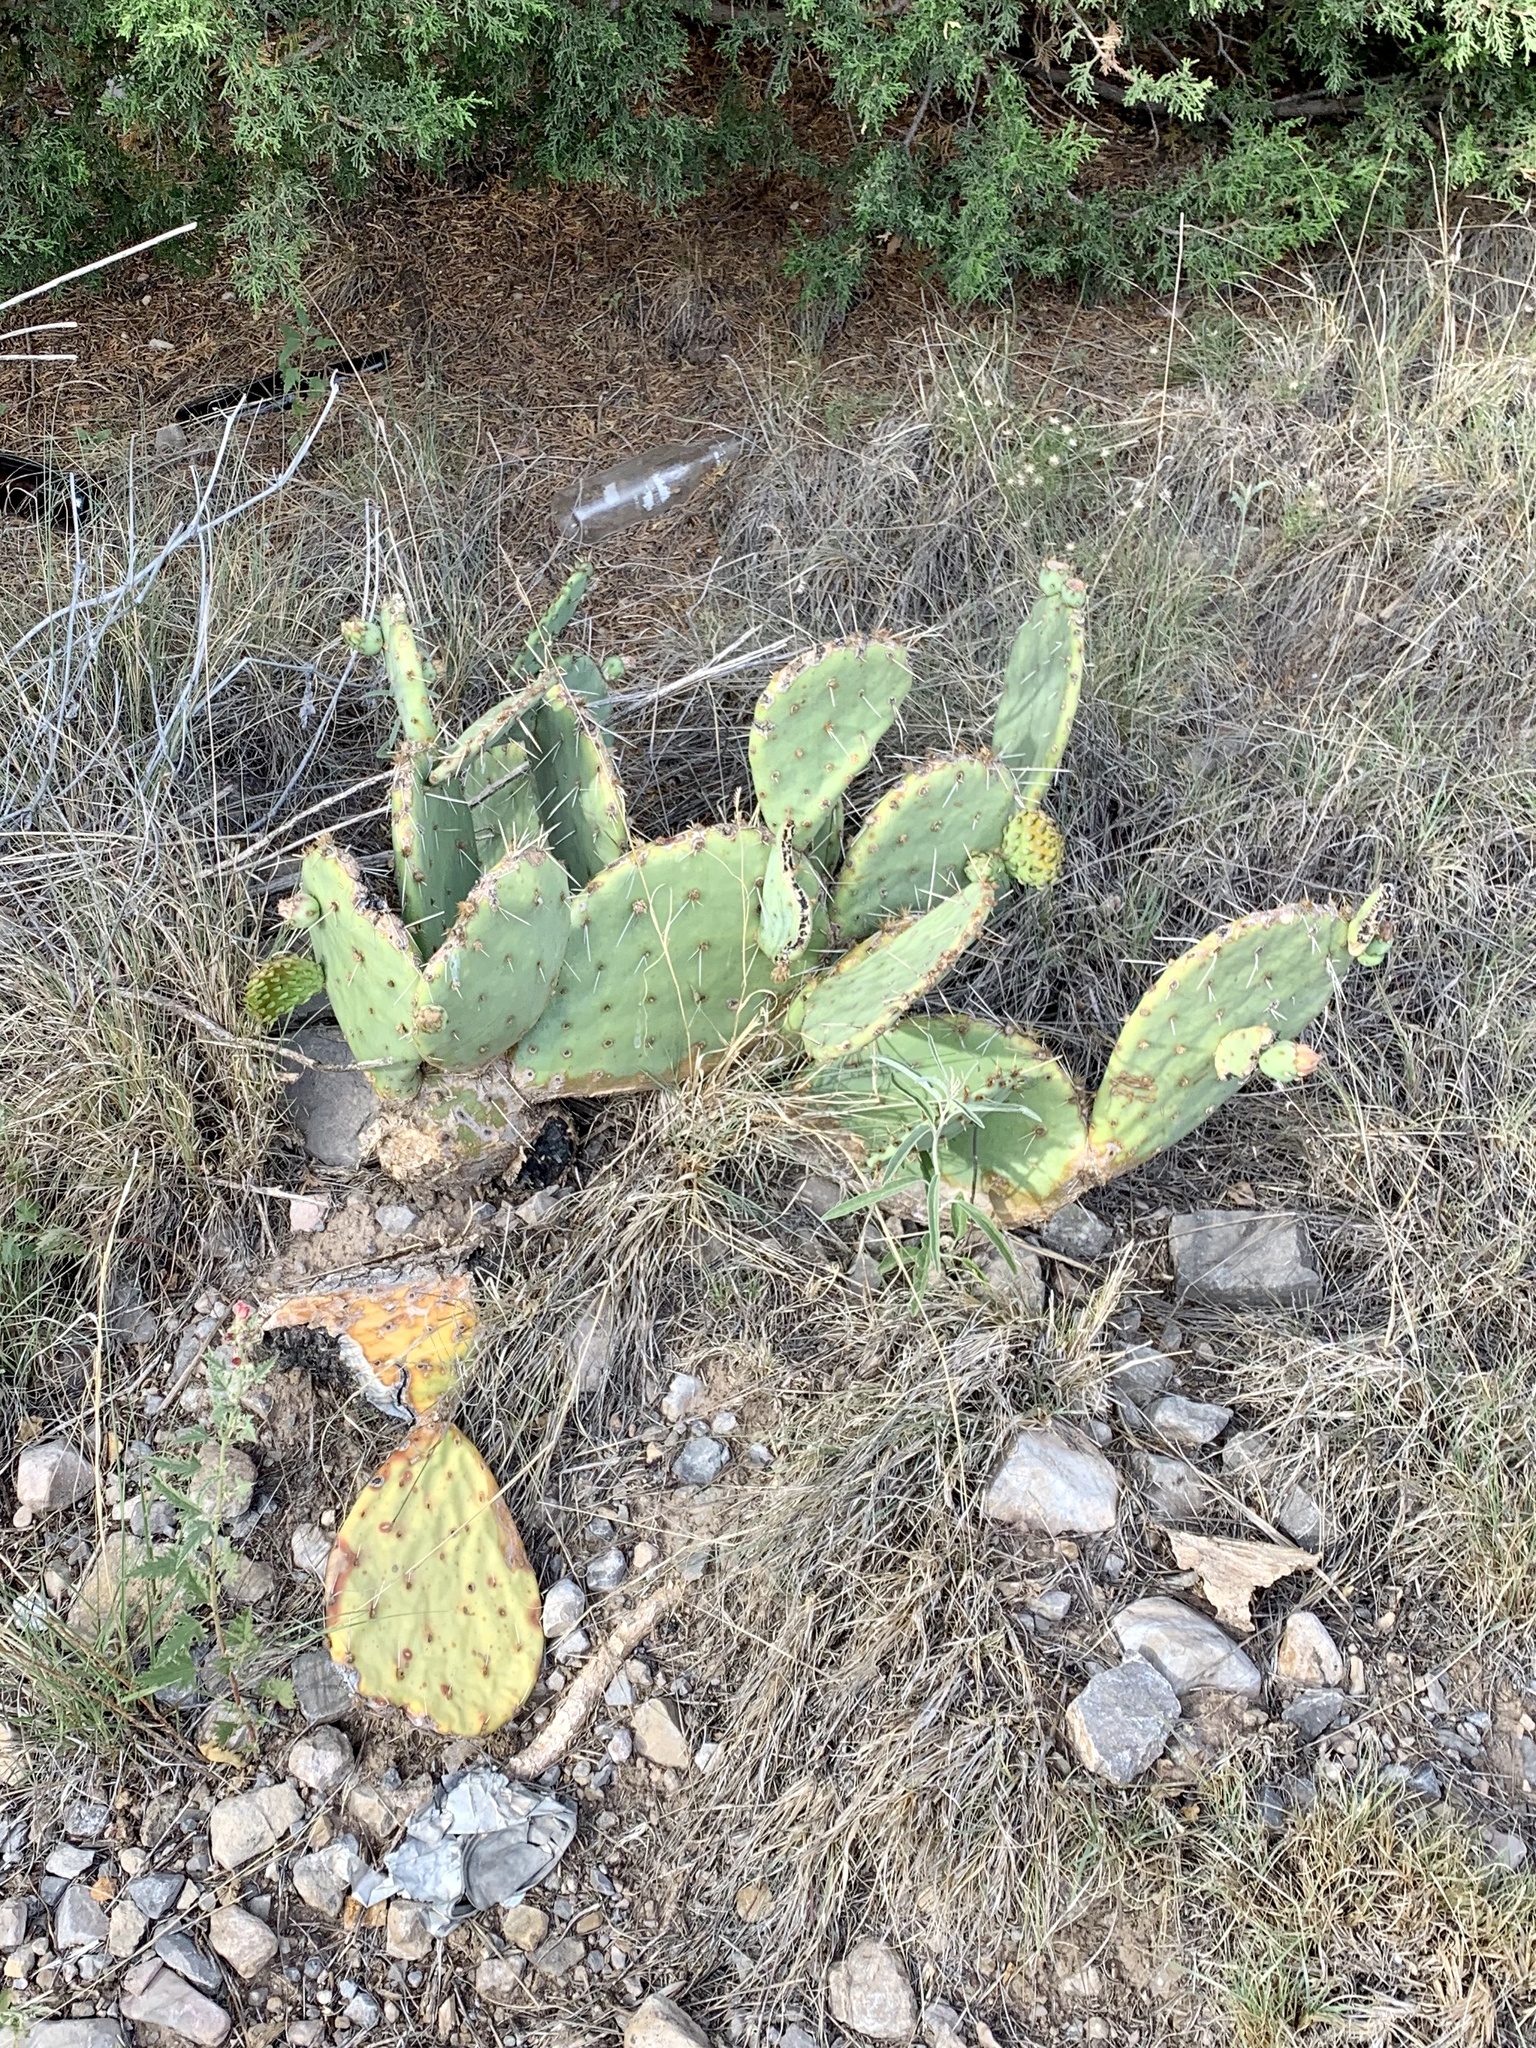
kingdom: Plantae
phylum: Tracheophyta
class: Magnoliopsida
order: Caryophyllales
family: Cactaceae
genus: Opuntia
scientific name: Opuntia engelmannii
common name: Cactus-apple
